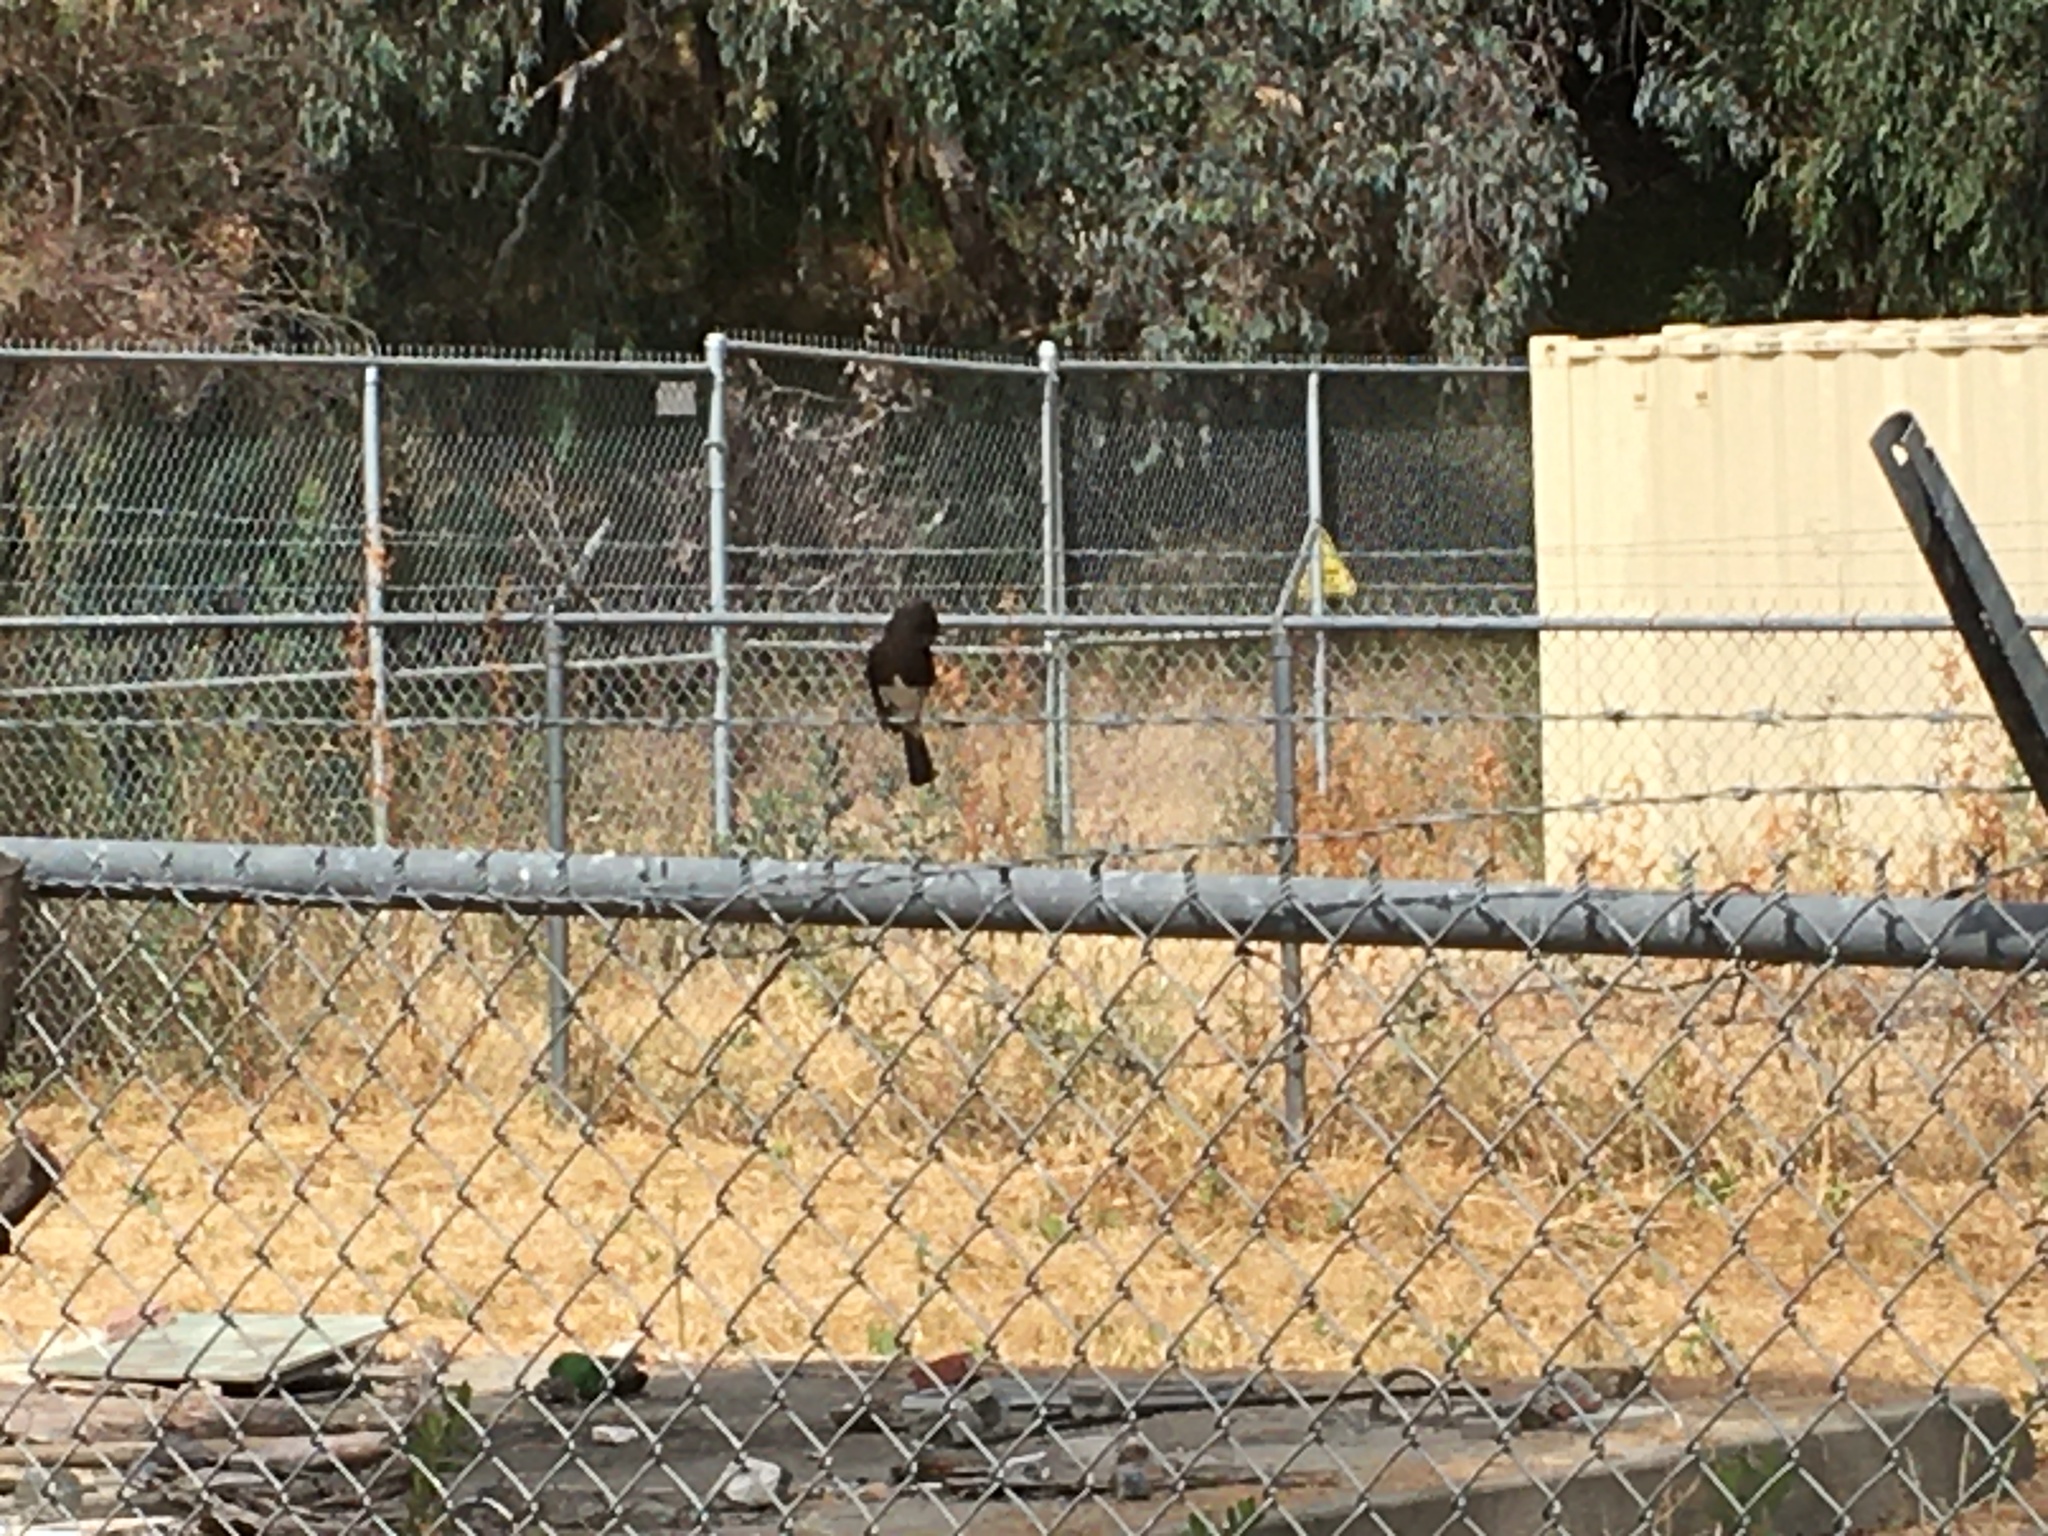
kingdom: Animalia
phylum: Chordata
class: Aves
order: Passeriformes
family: Tyrannidae
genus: Sayornis
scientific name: Sayornis nigricans
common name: Black phoebe
